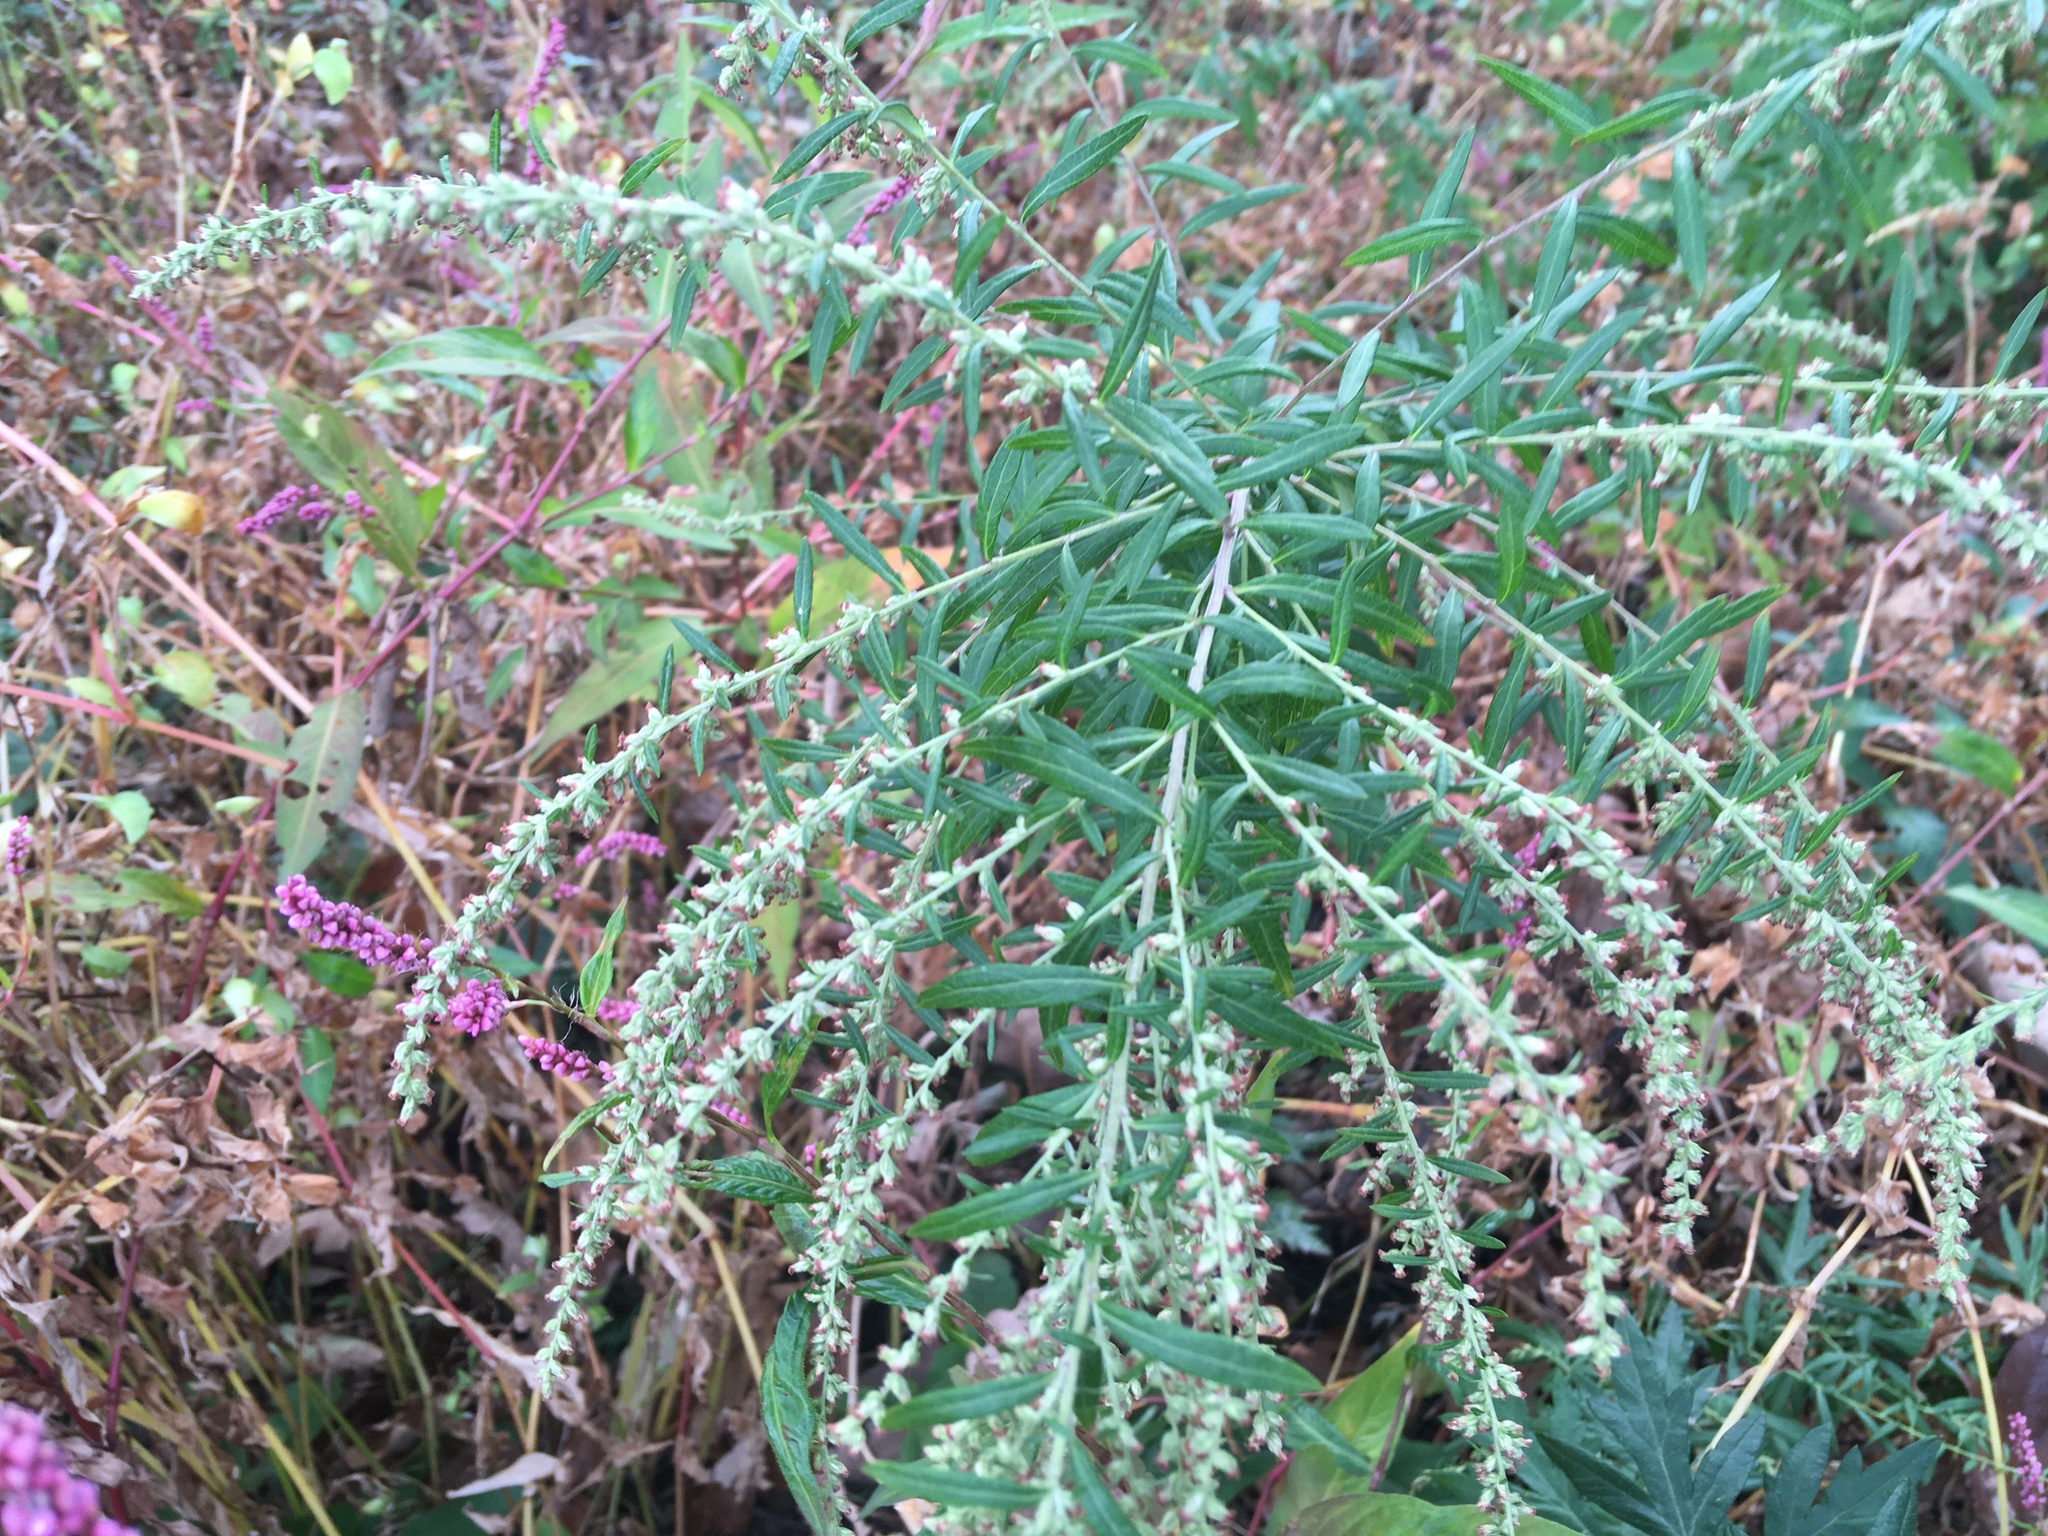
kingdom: Plantae
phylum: Tracheophyta
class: Magnoliopsida
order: Asterales
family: Asteraceae
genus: Artemisia
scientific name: Artemisia vulgaris
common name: Mugwort
